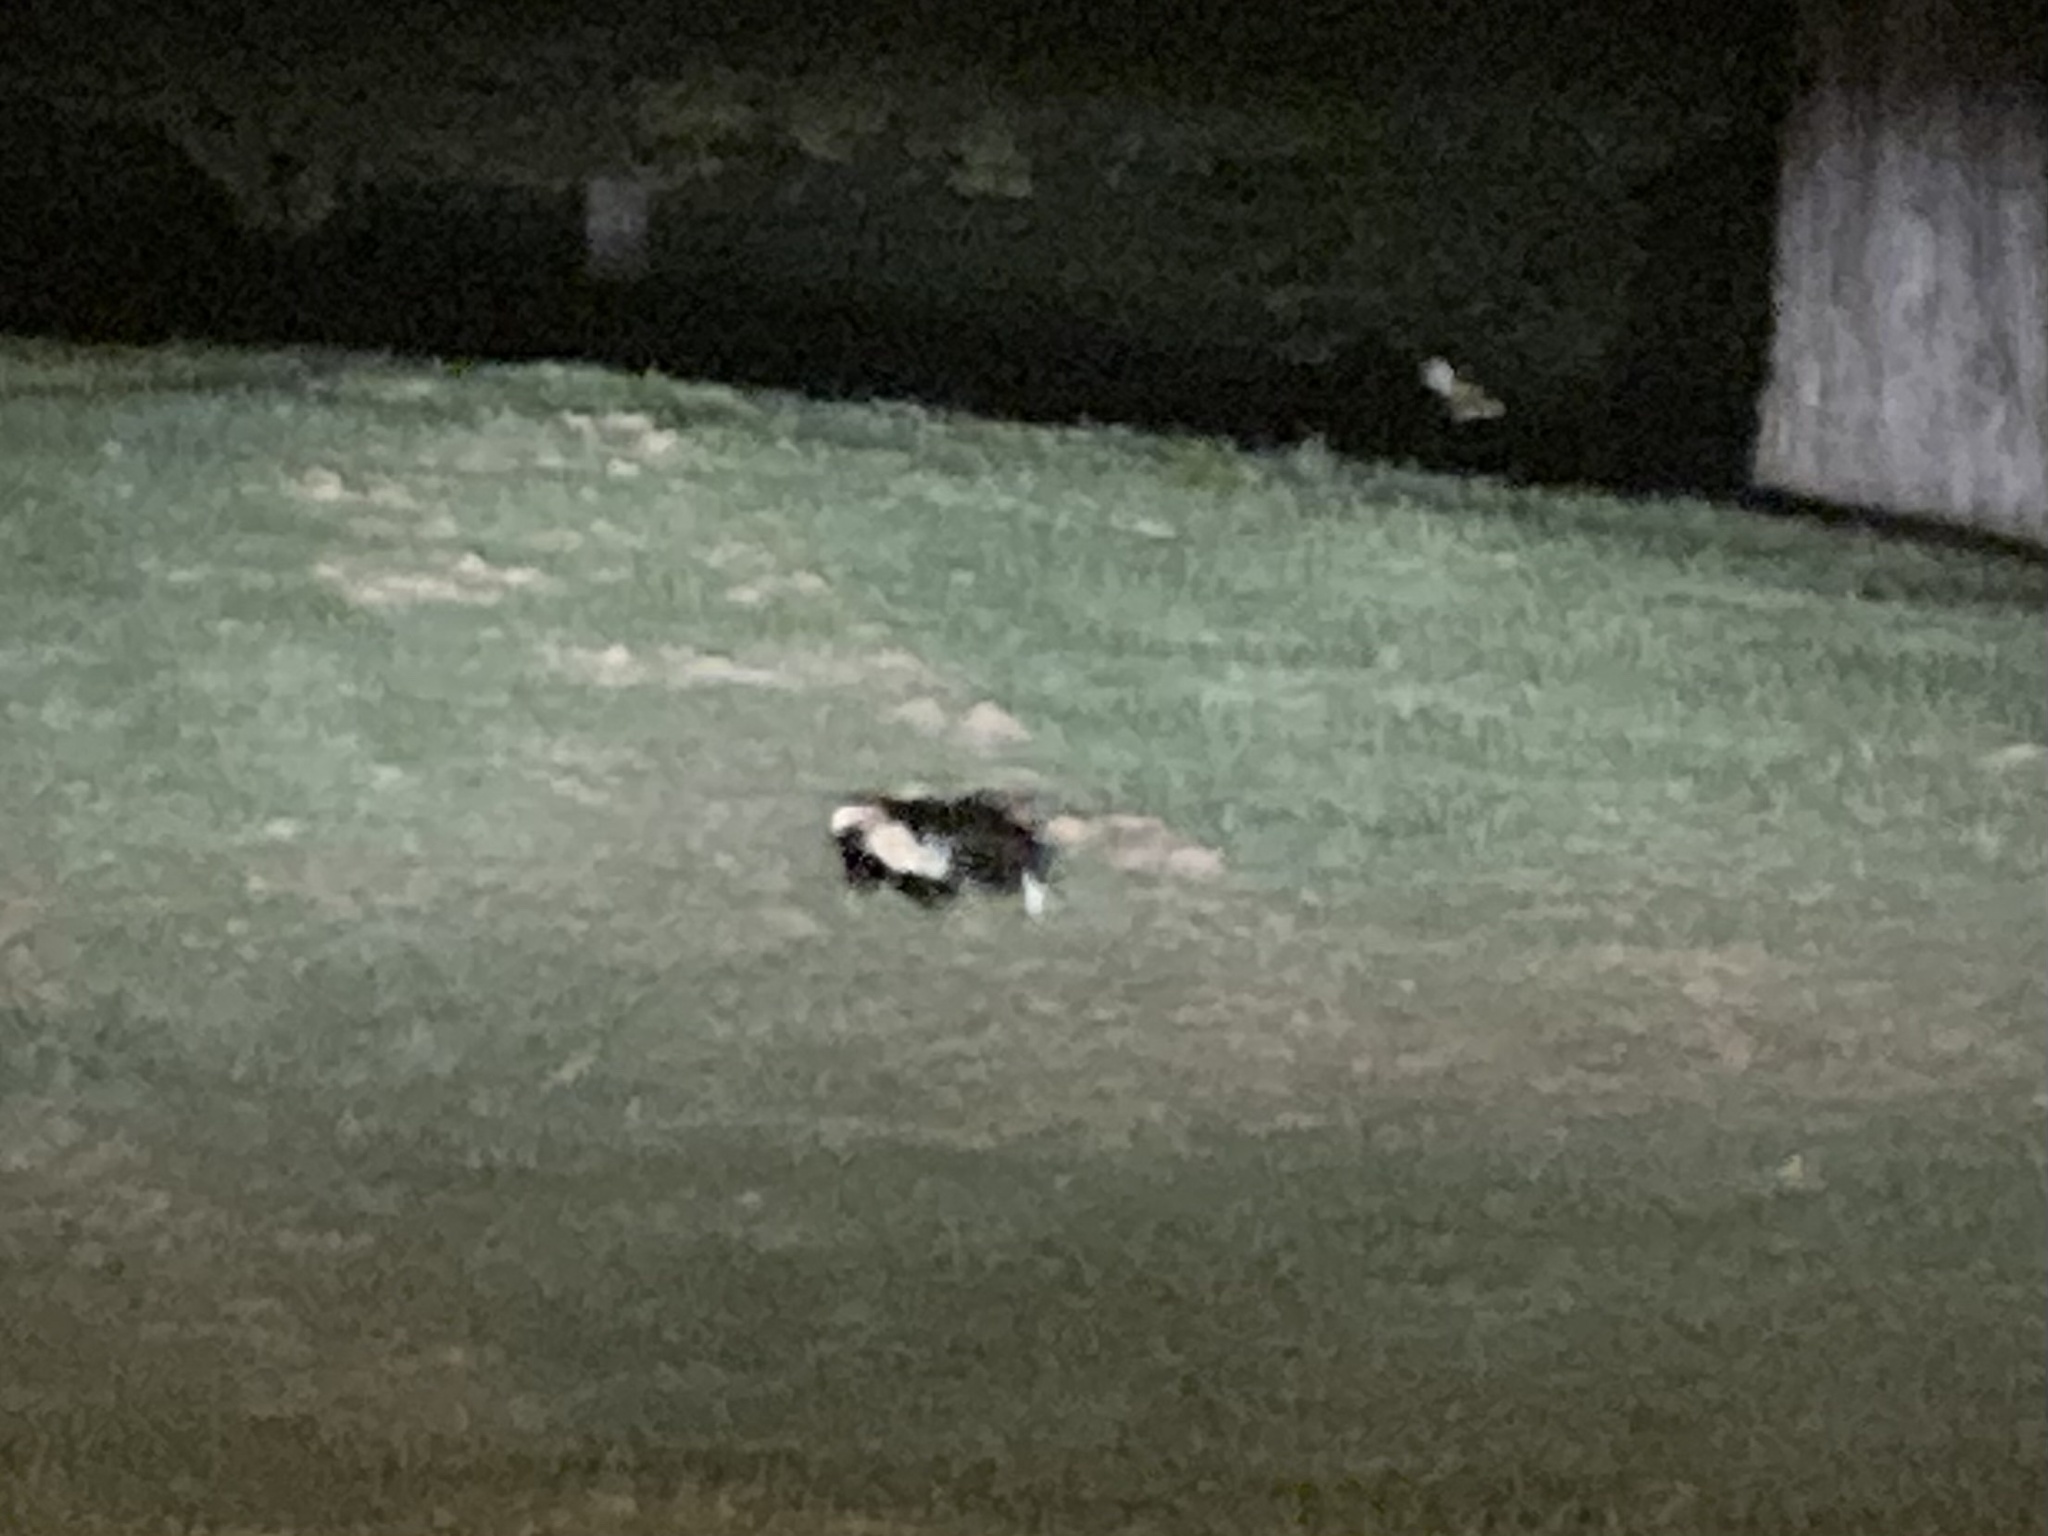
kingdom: Animalia
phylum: Chordata
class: Mammalia
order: Carnivora
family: Mephitidae
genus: Mephitis
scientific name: Mephitis mephitis
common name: Striped skunk
